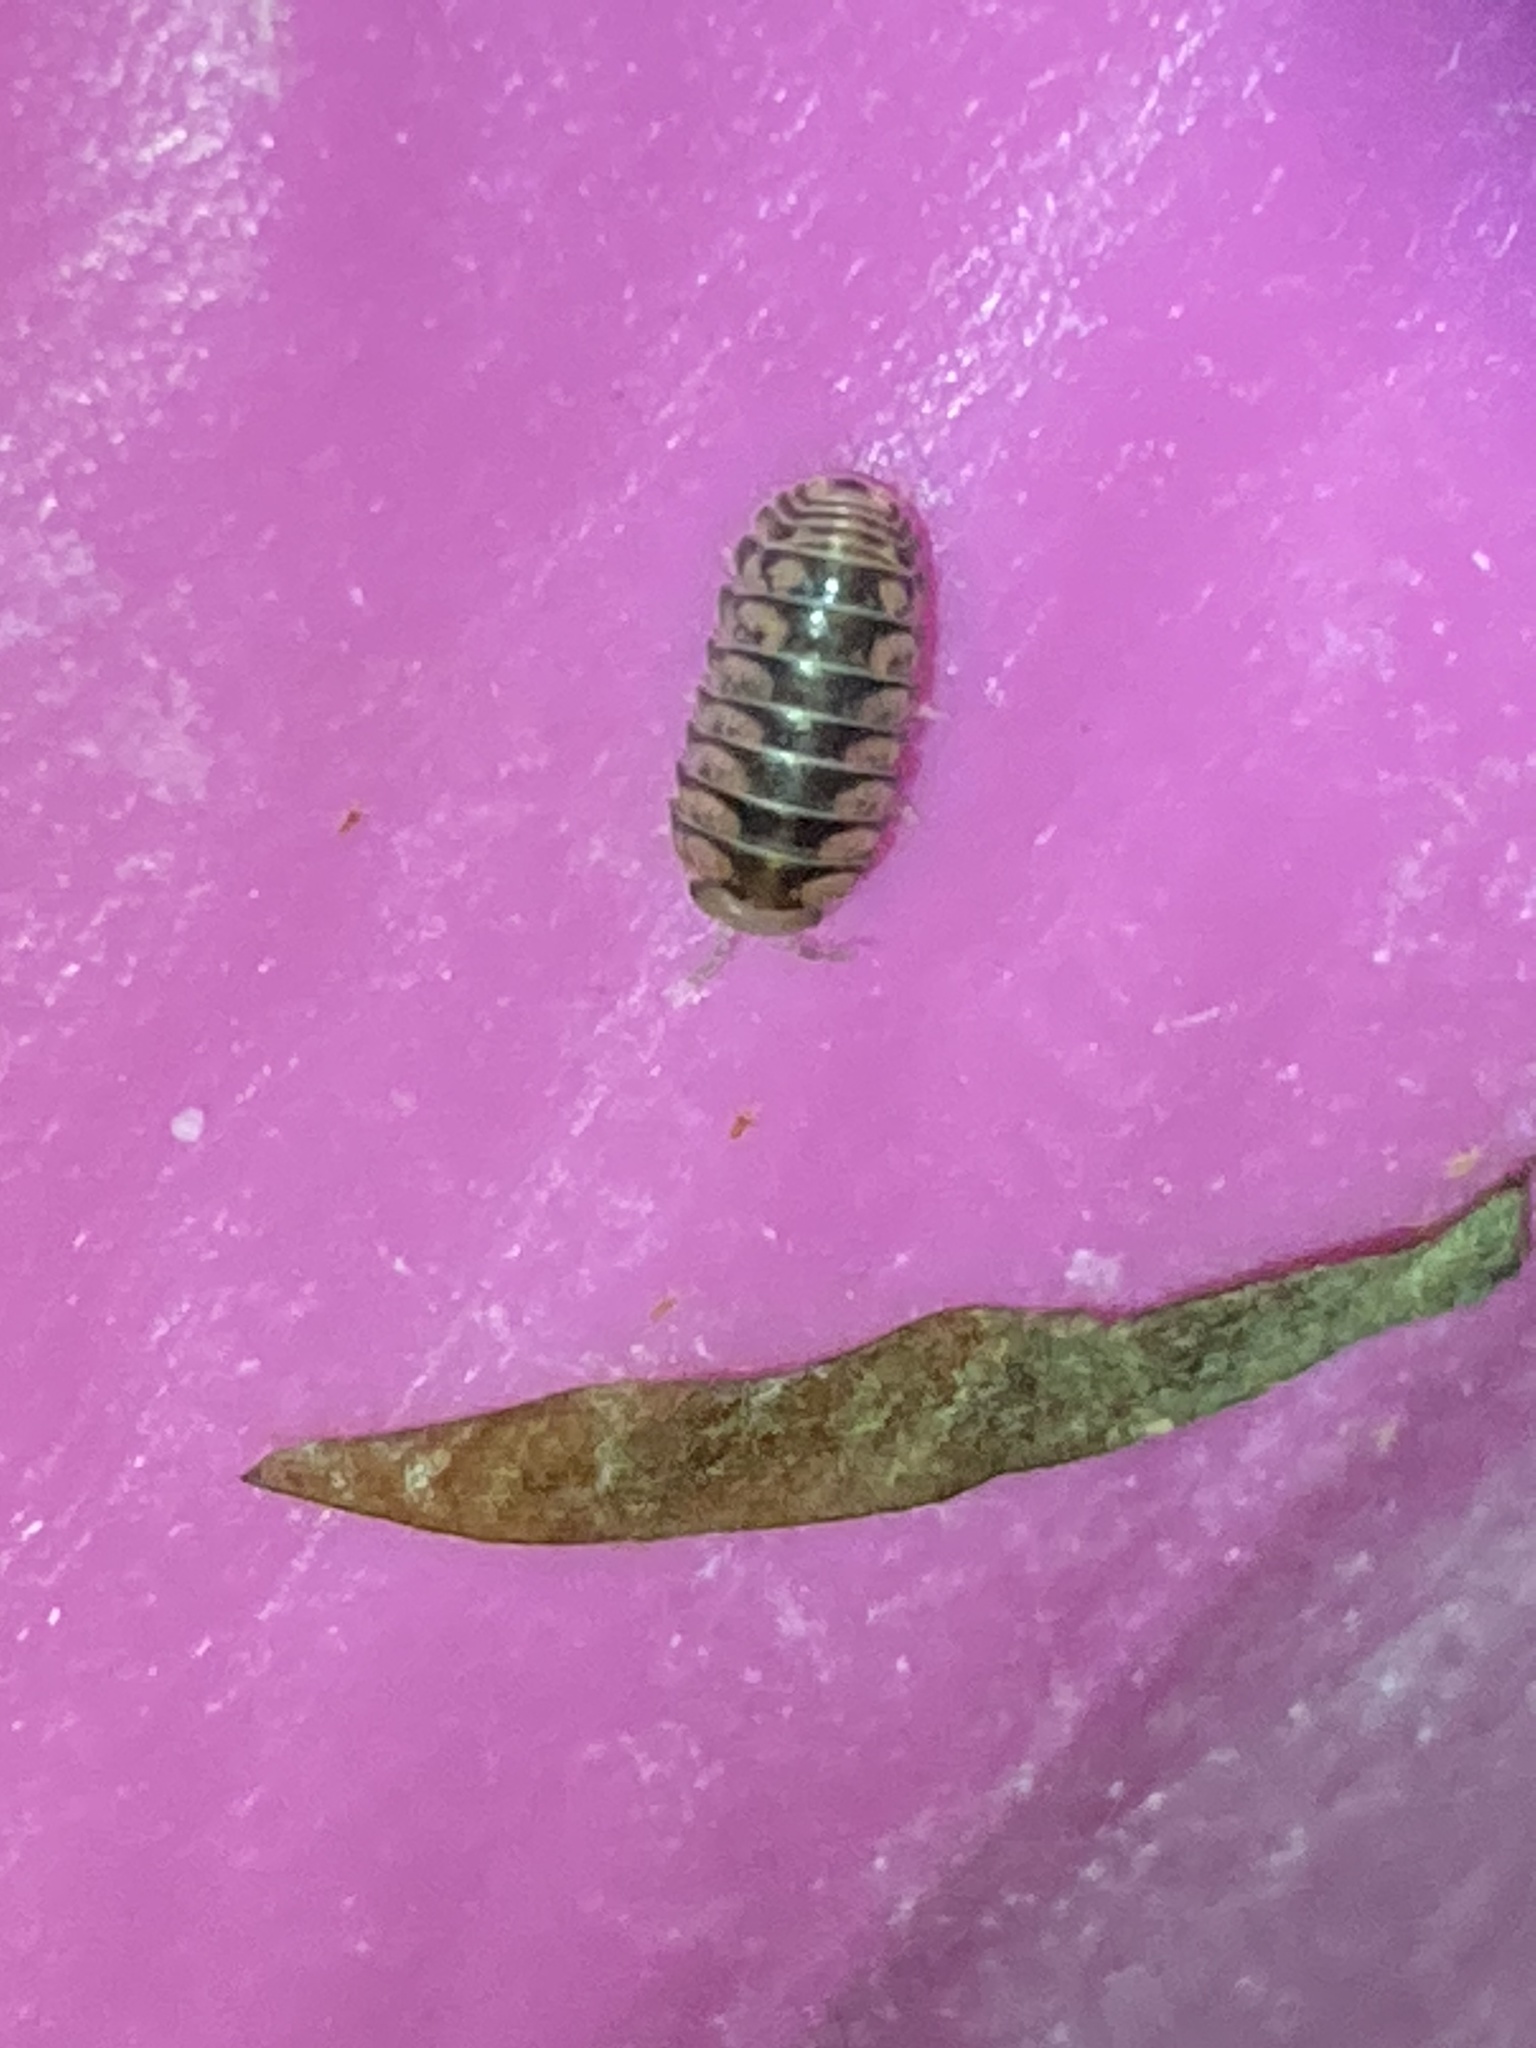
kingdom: Animalia
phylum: Arthropoda
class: Malacostraca
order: Isopoda
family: Armadillidae
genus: Venezillo
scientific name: Venezillo parvus
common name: Pillbug
